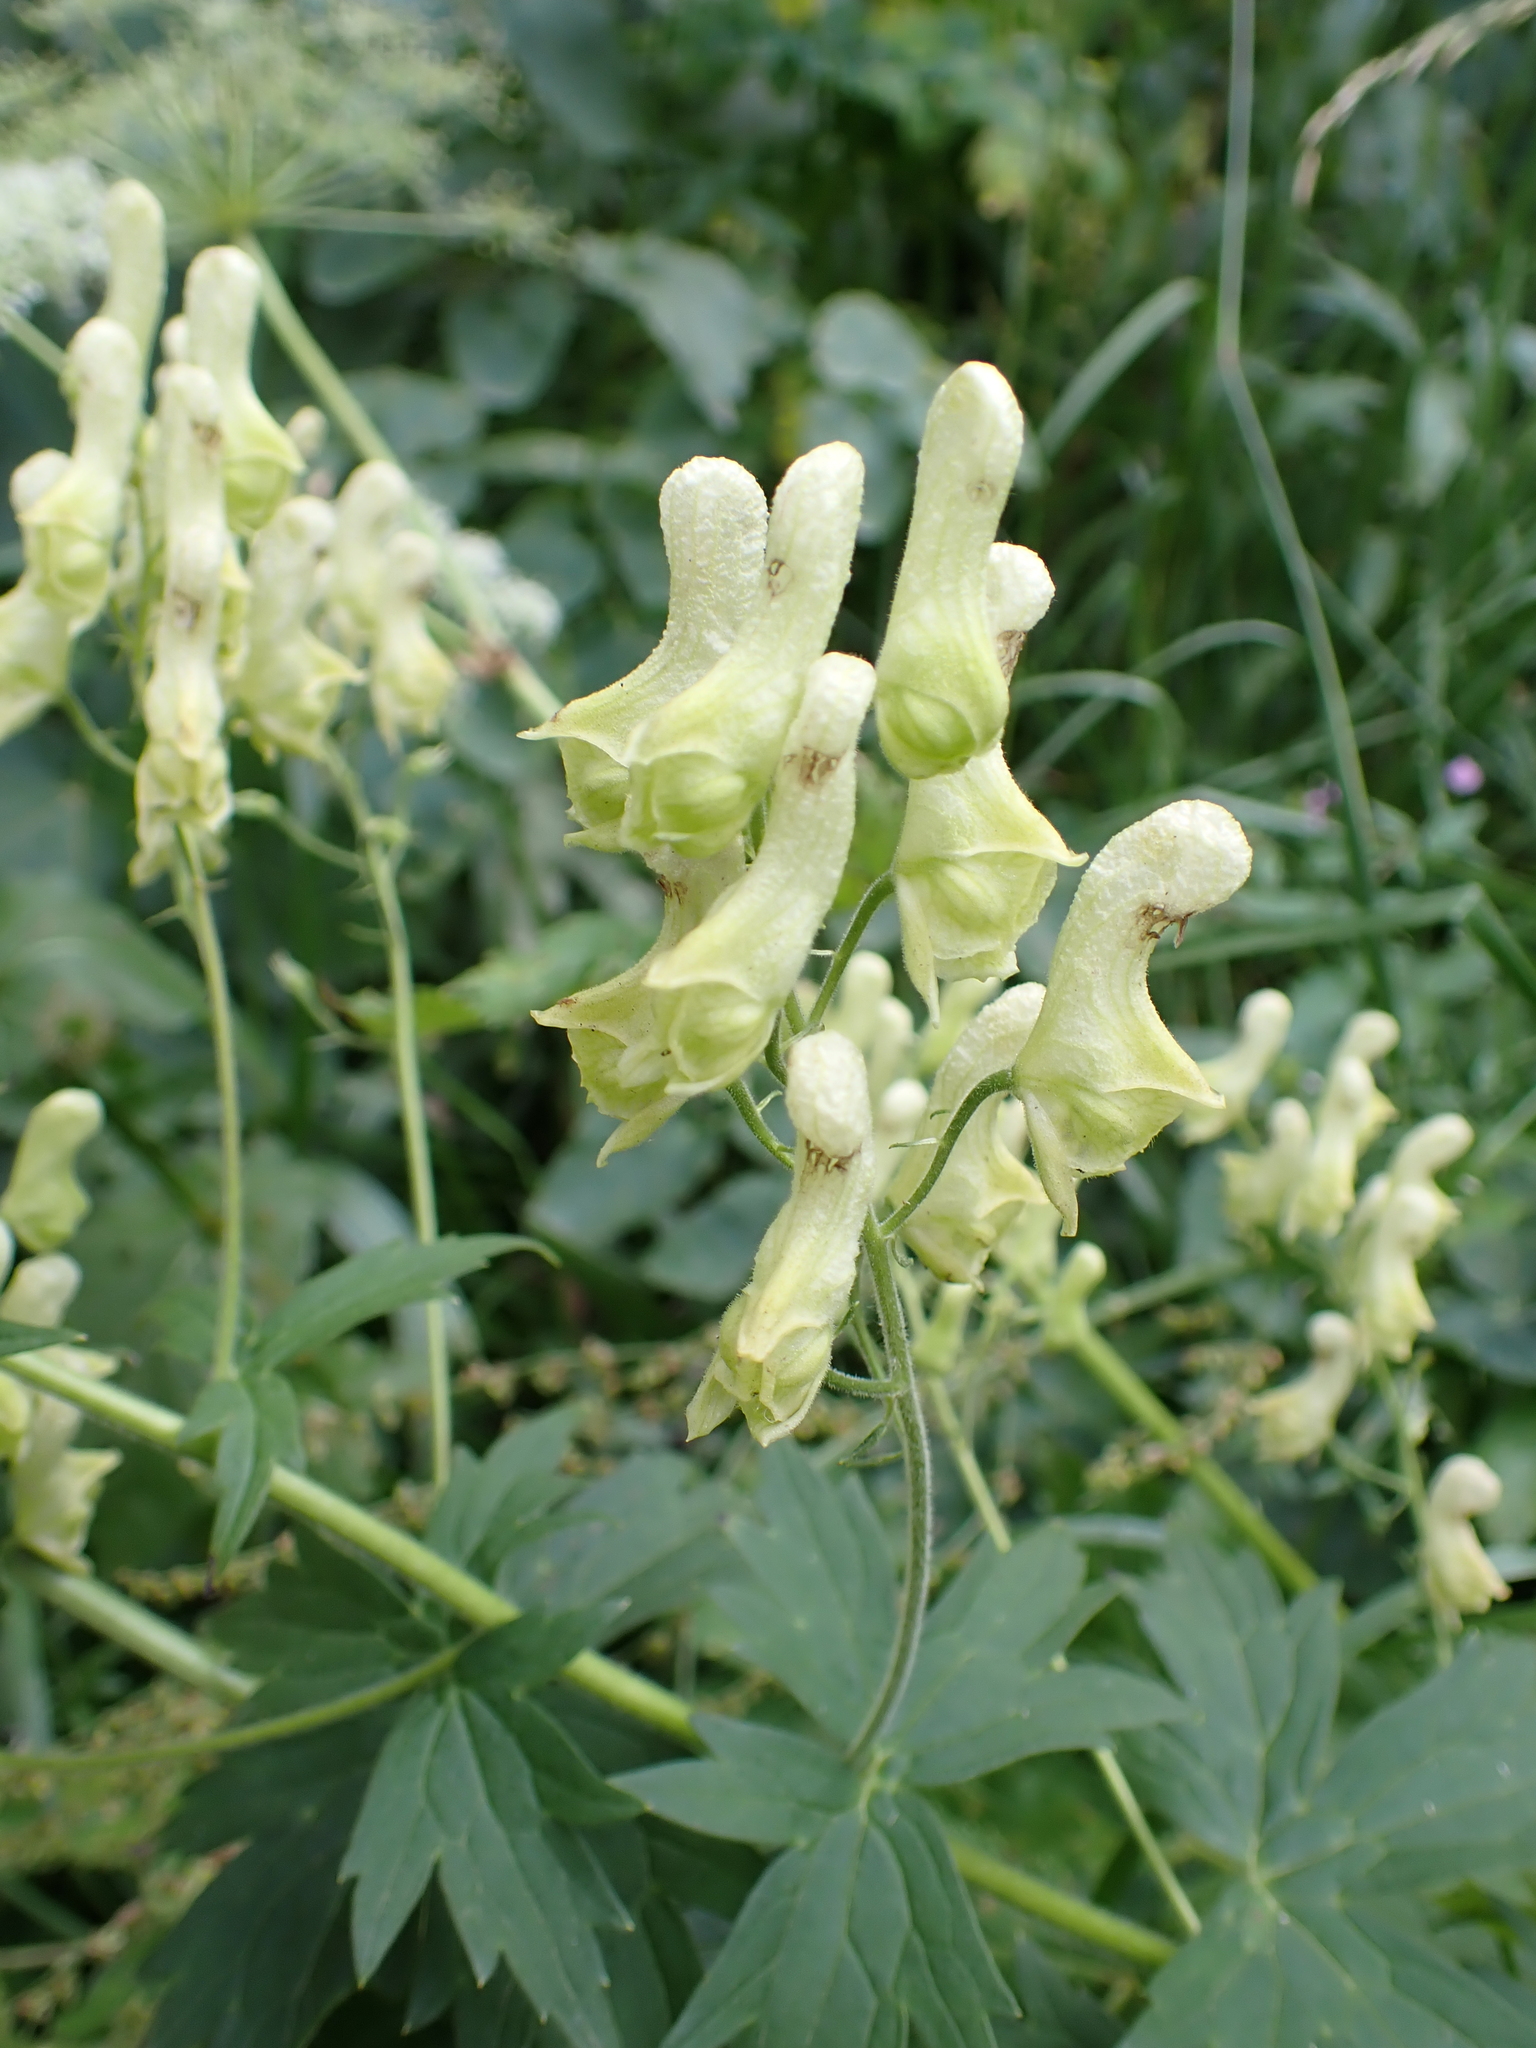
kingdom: Plantae
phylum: Tracheophyta
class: Magnoliopsida
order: Ranunculales
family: Ranunculaceae
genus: Aconitum
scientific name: Aconitum lycoctonum
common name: Wolf's-bane
